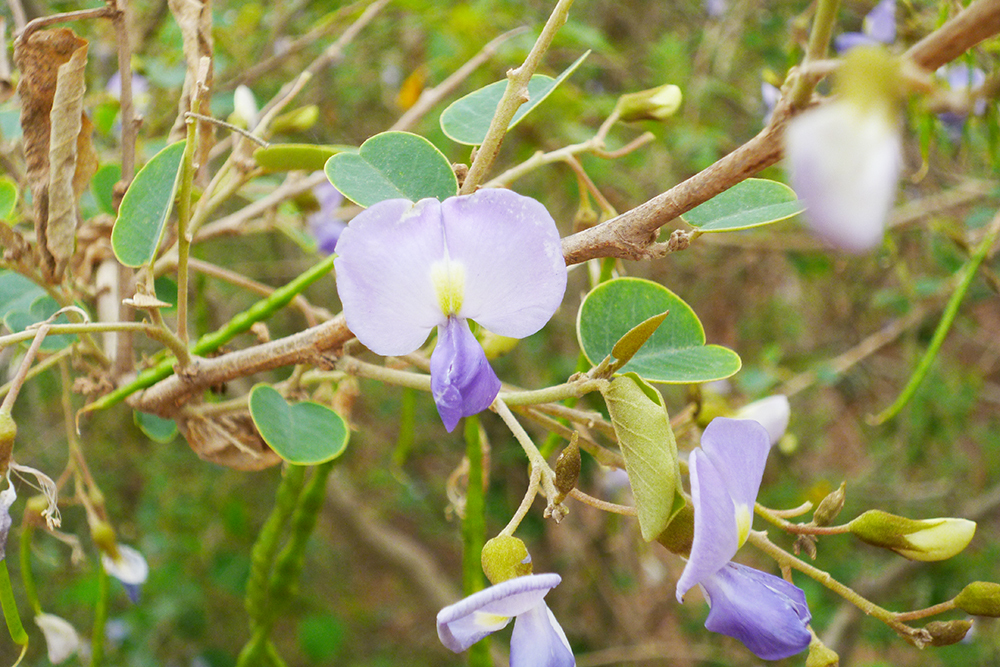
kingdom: Plantae
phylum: Tracheophyta
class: Magnoliopsida
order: Fabales
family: Fabaceae
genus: Poissonia
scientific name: Poissonia hypoleuca
